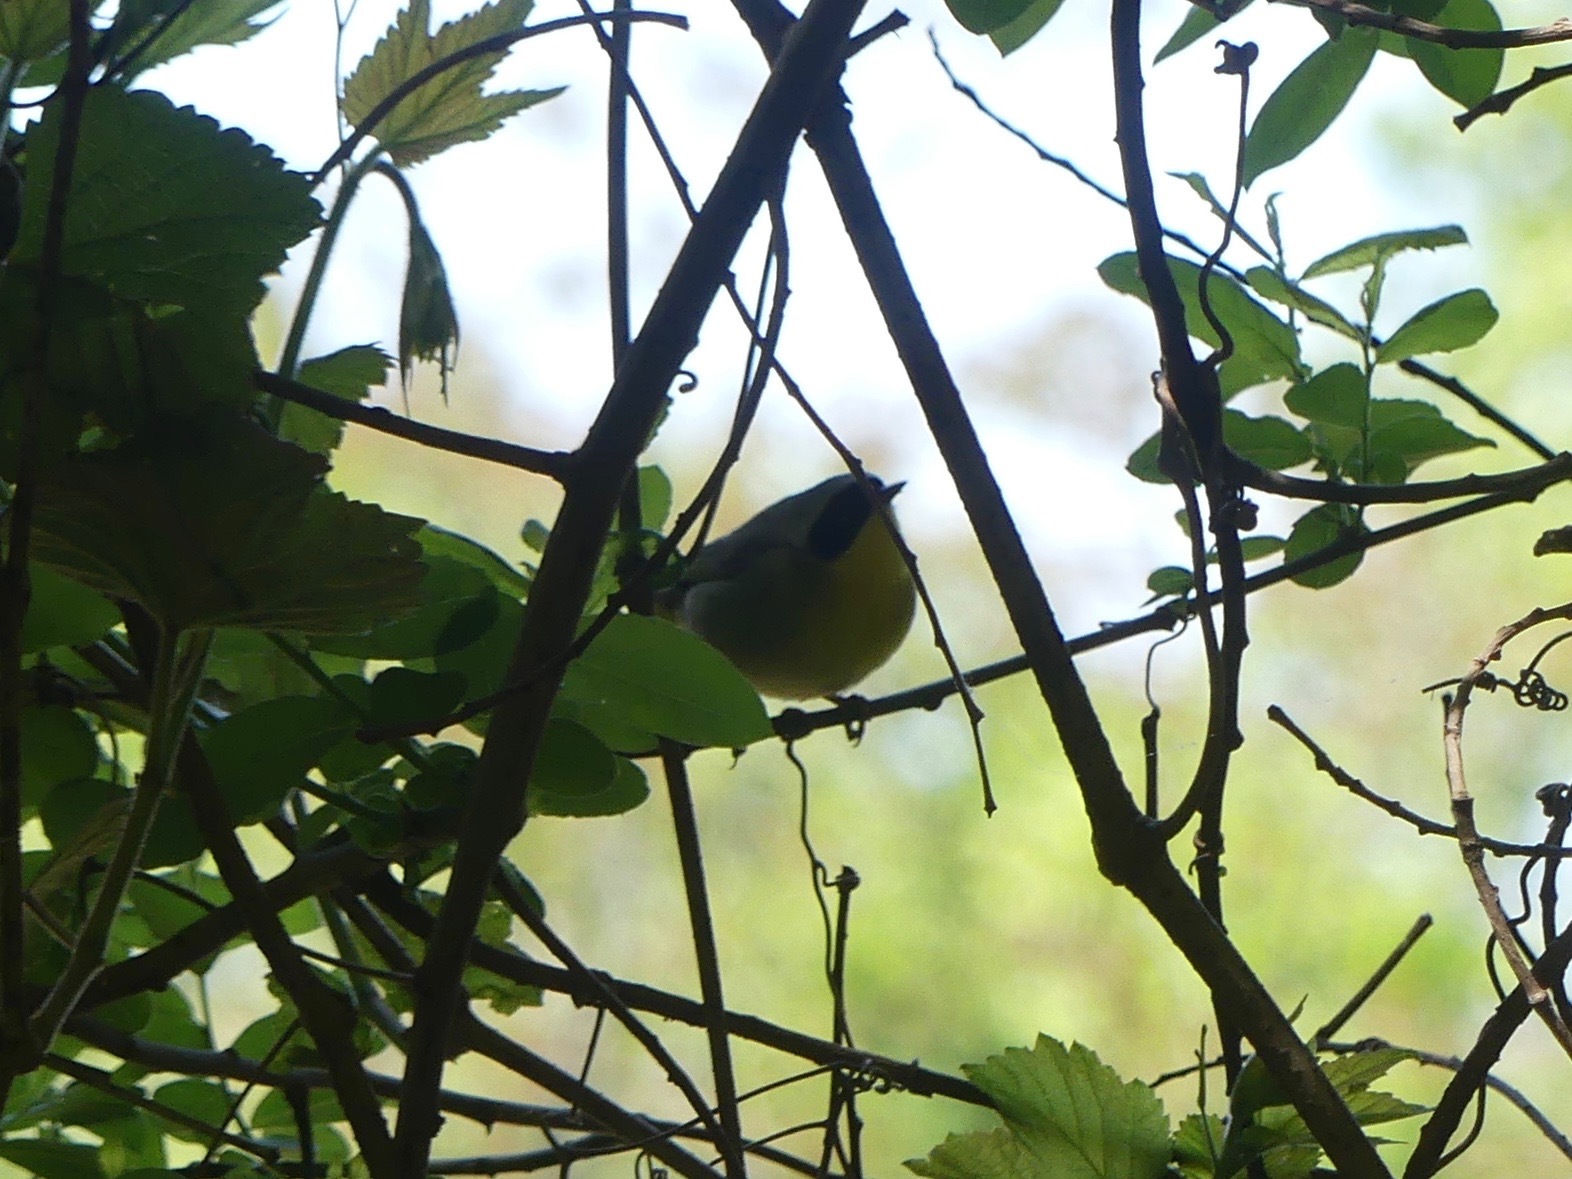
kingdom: Animalia
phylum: Chordata
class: Aves
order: Passeriformes
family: Parulidae
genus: Geothlypis
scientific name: Geothlypis trichas
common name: Common yellowthroat
